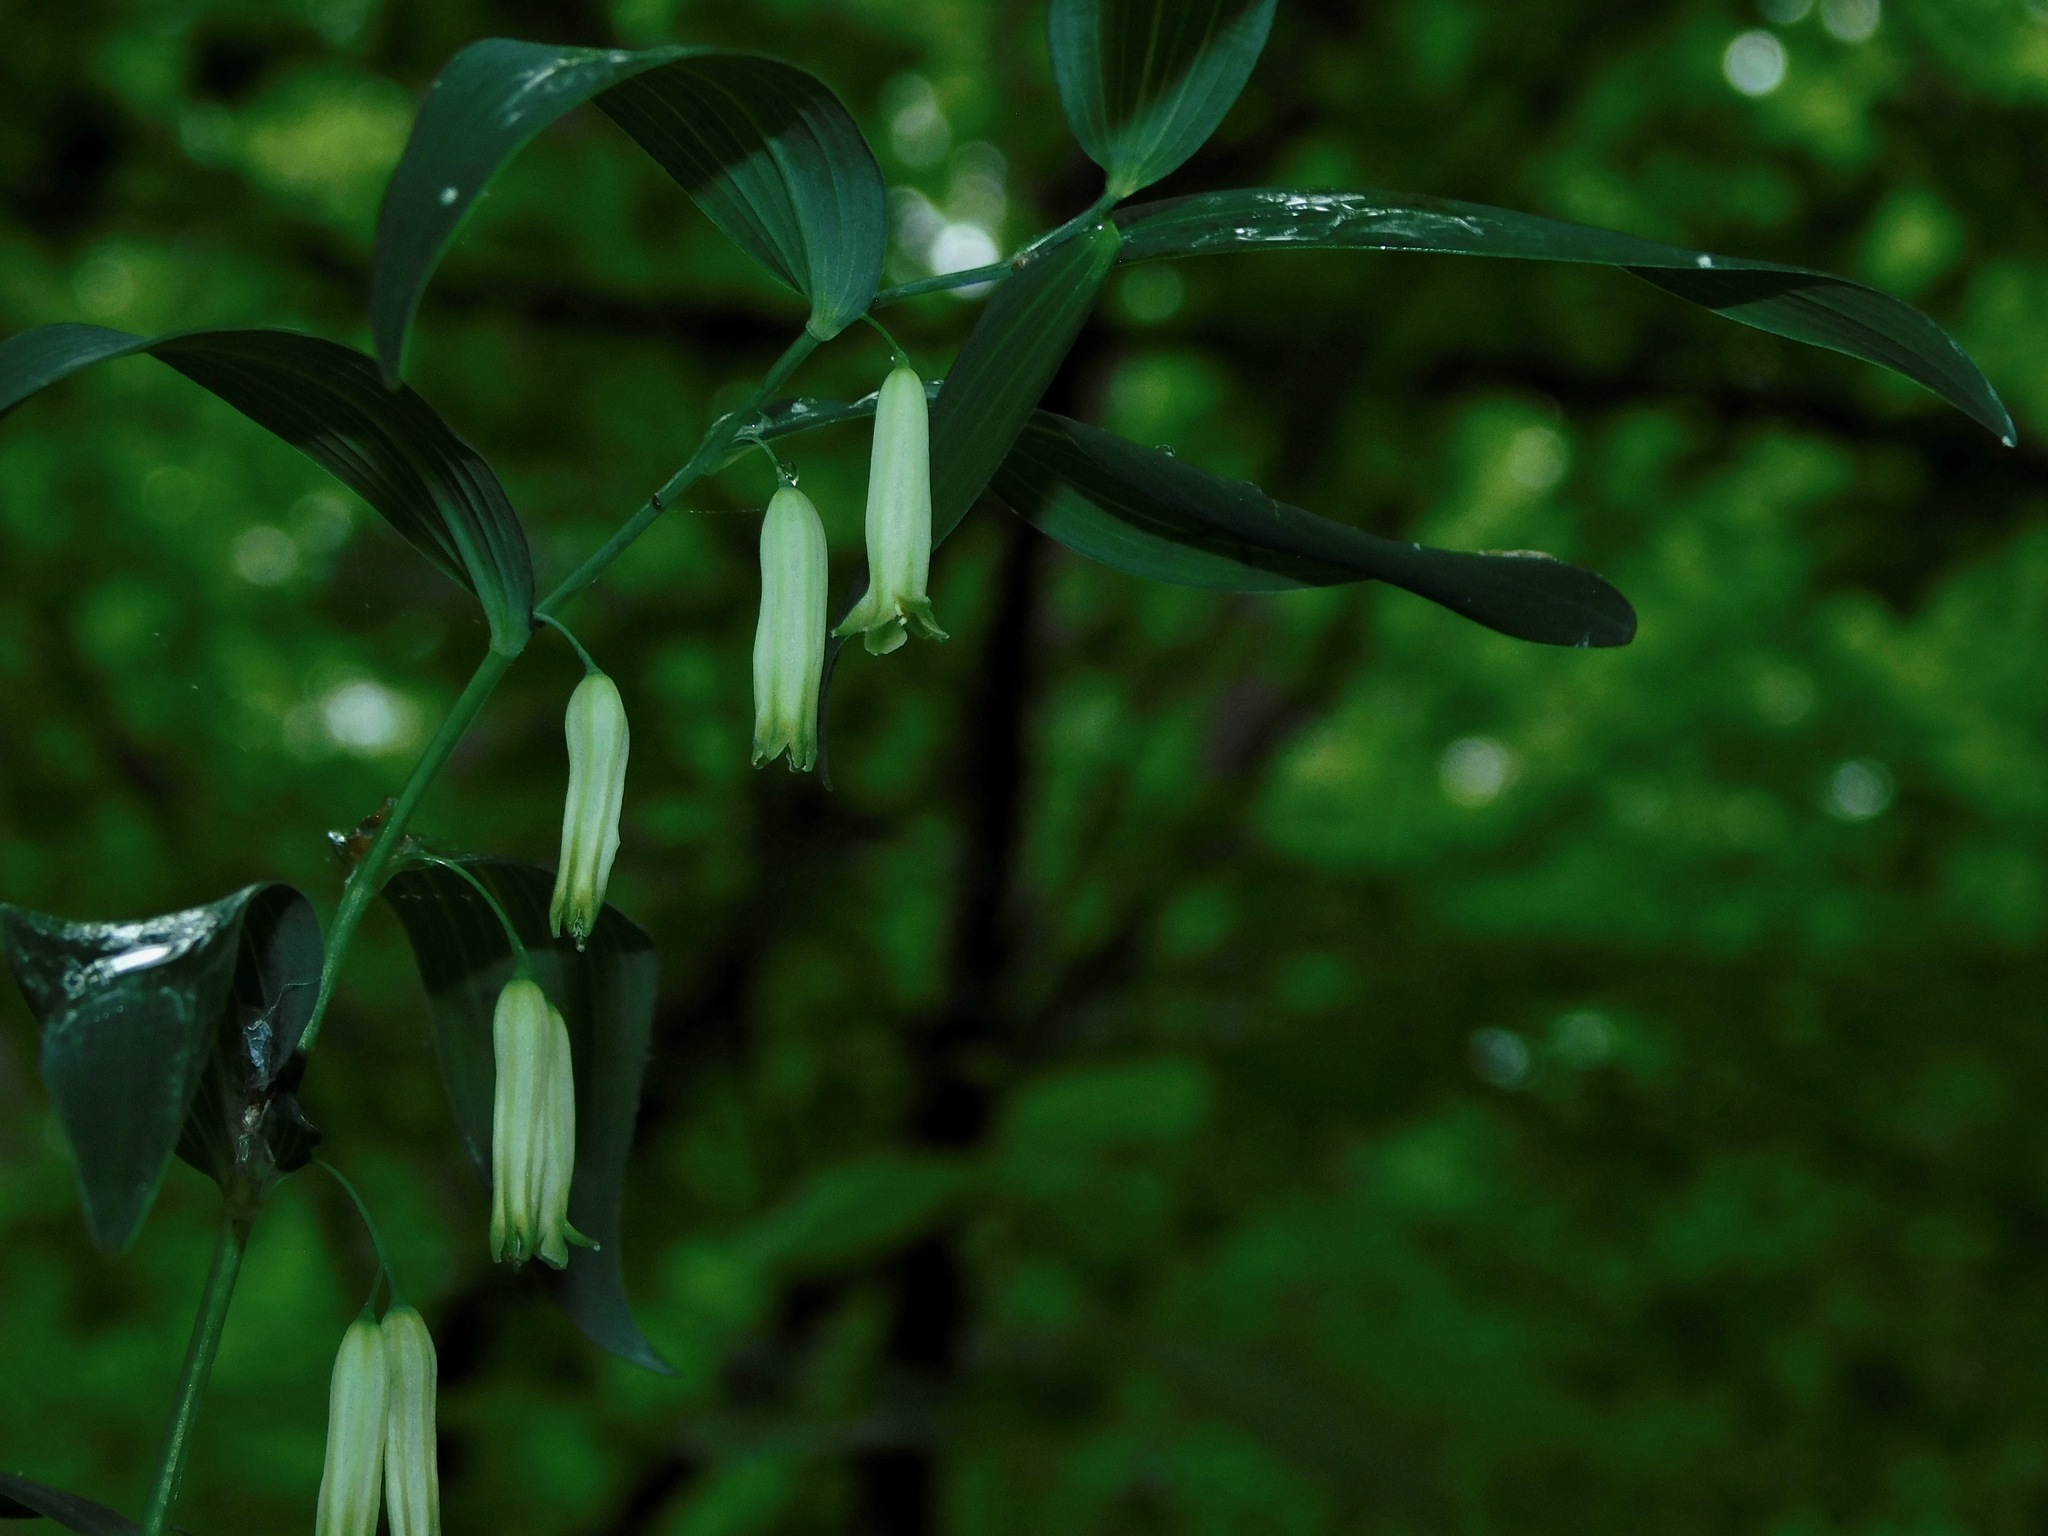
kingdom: Plantae
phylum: Tracheophyta
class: Liliopsida
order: Asparagales
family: Asparagaceae
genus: Polygonatum
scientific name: Polygonatum biflorum
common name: American solomon's-seal
